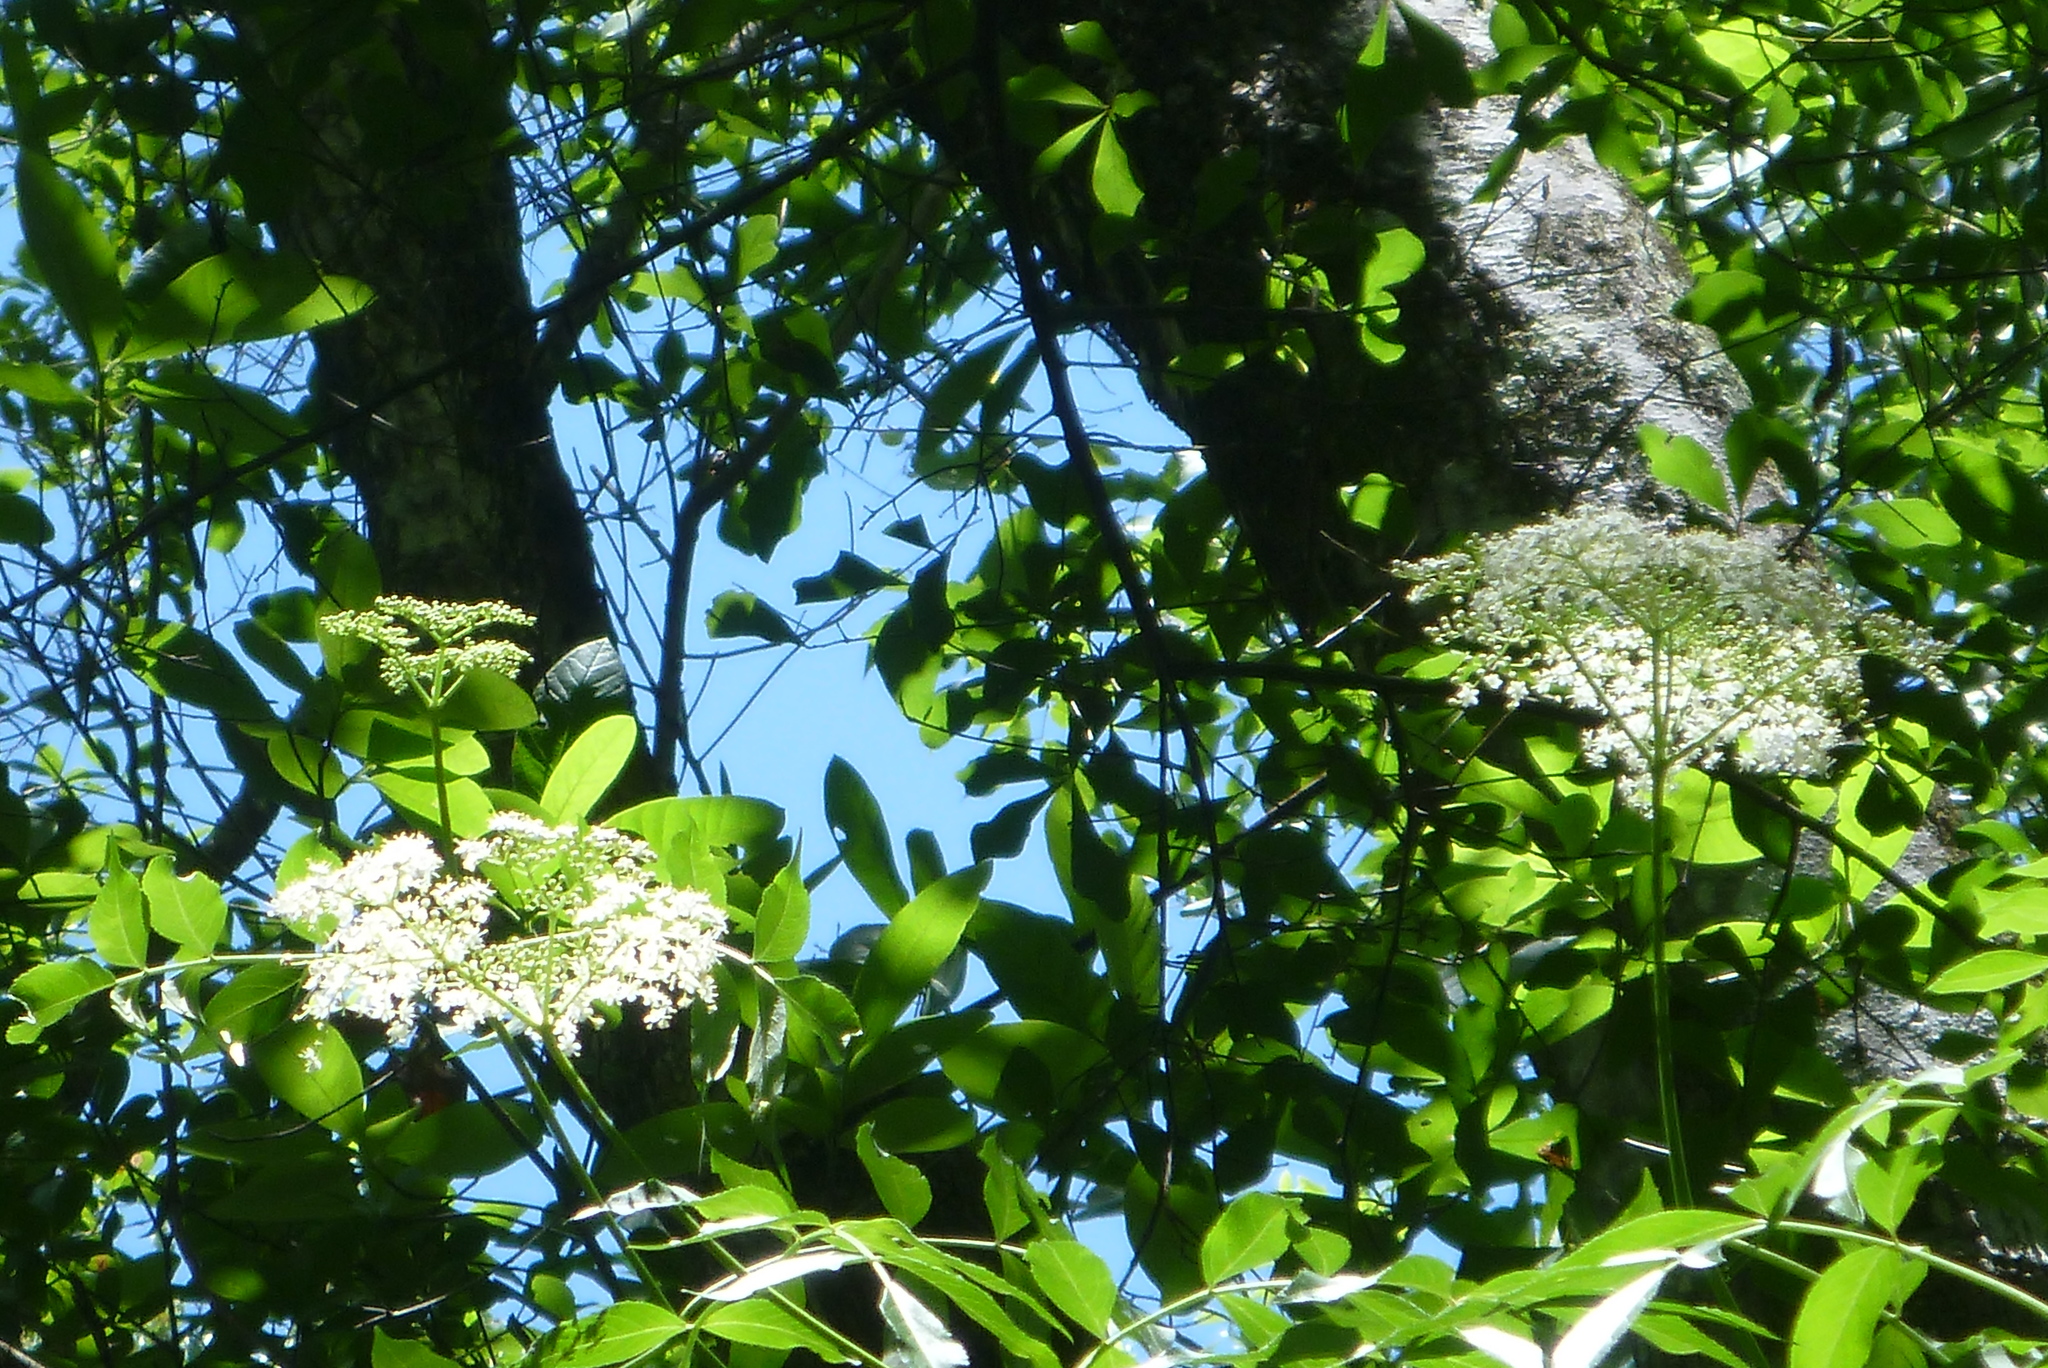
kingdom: Plantae
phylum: Tracheophyta
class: Magnoliopsida
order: Dipsacales
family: Viburnaceae
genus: Sambucus
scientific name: Sambucus canadensis
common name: American elder
